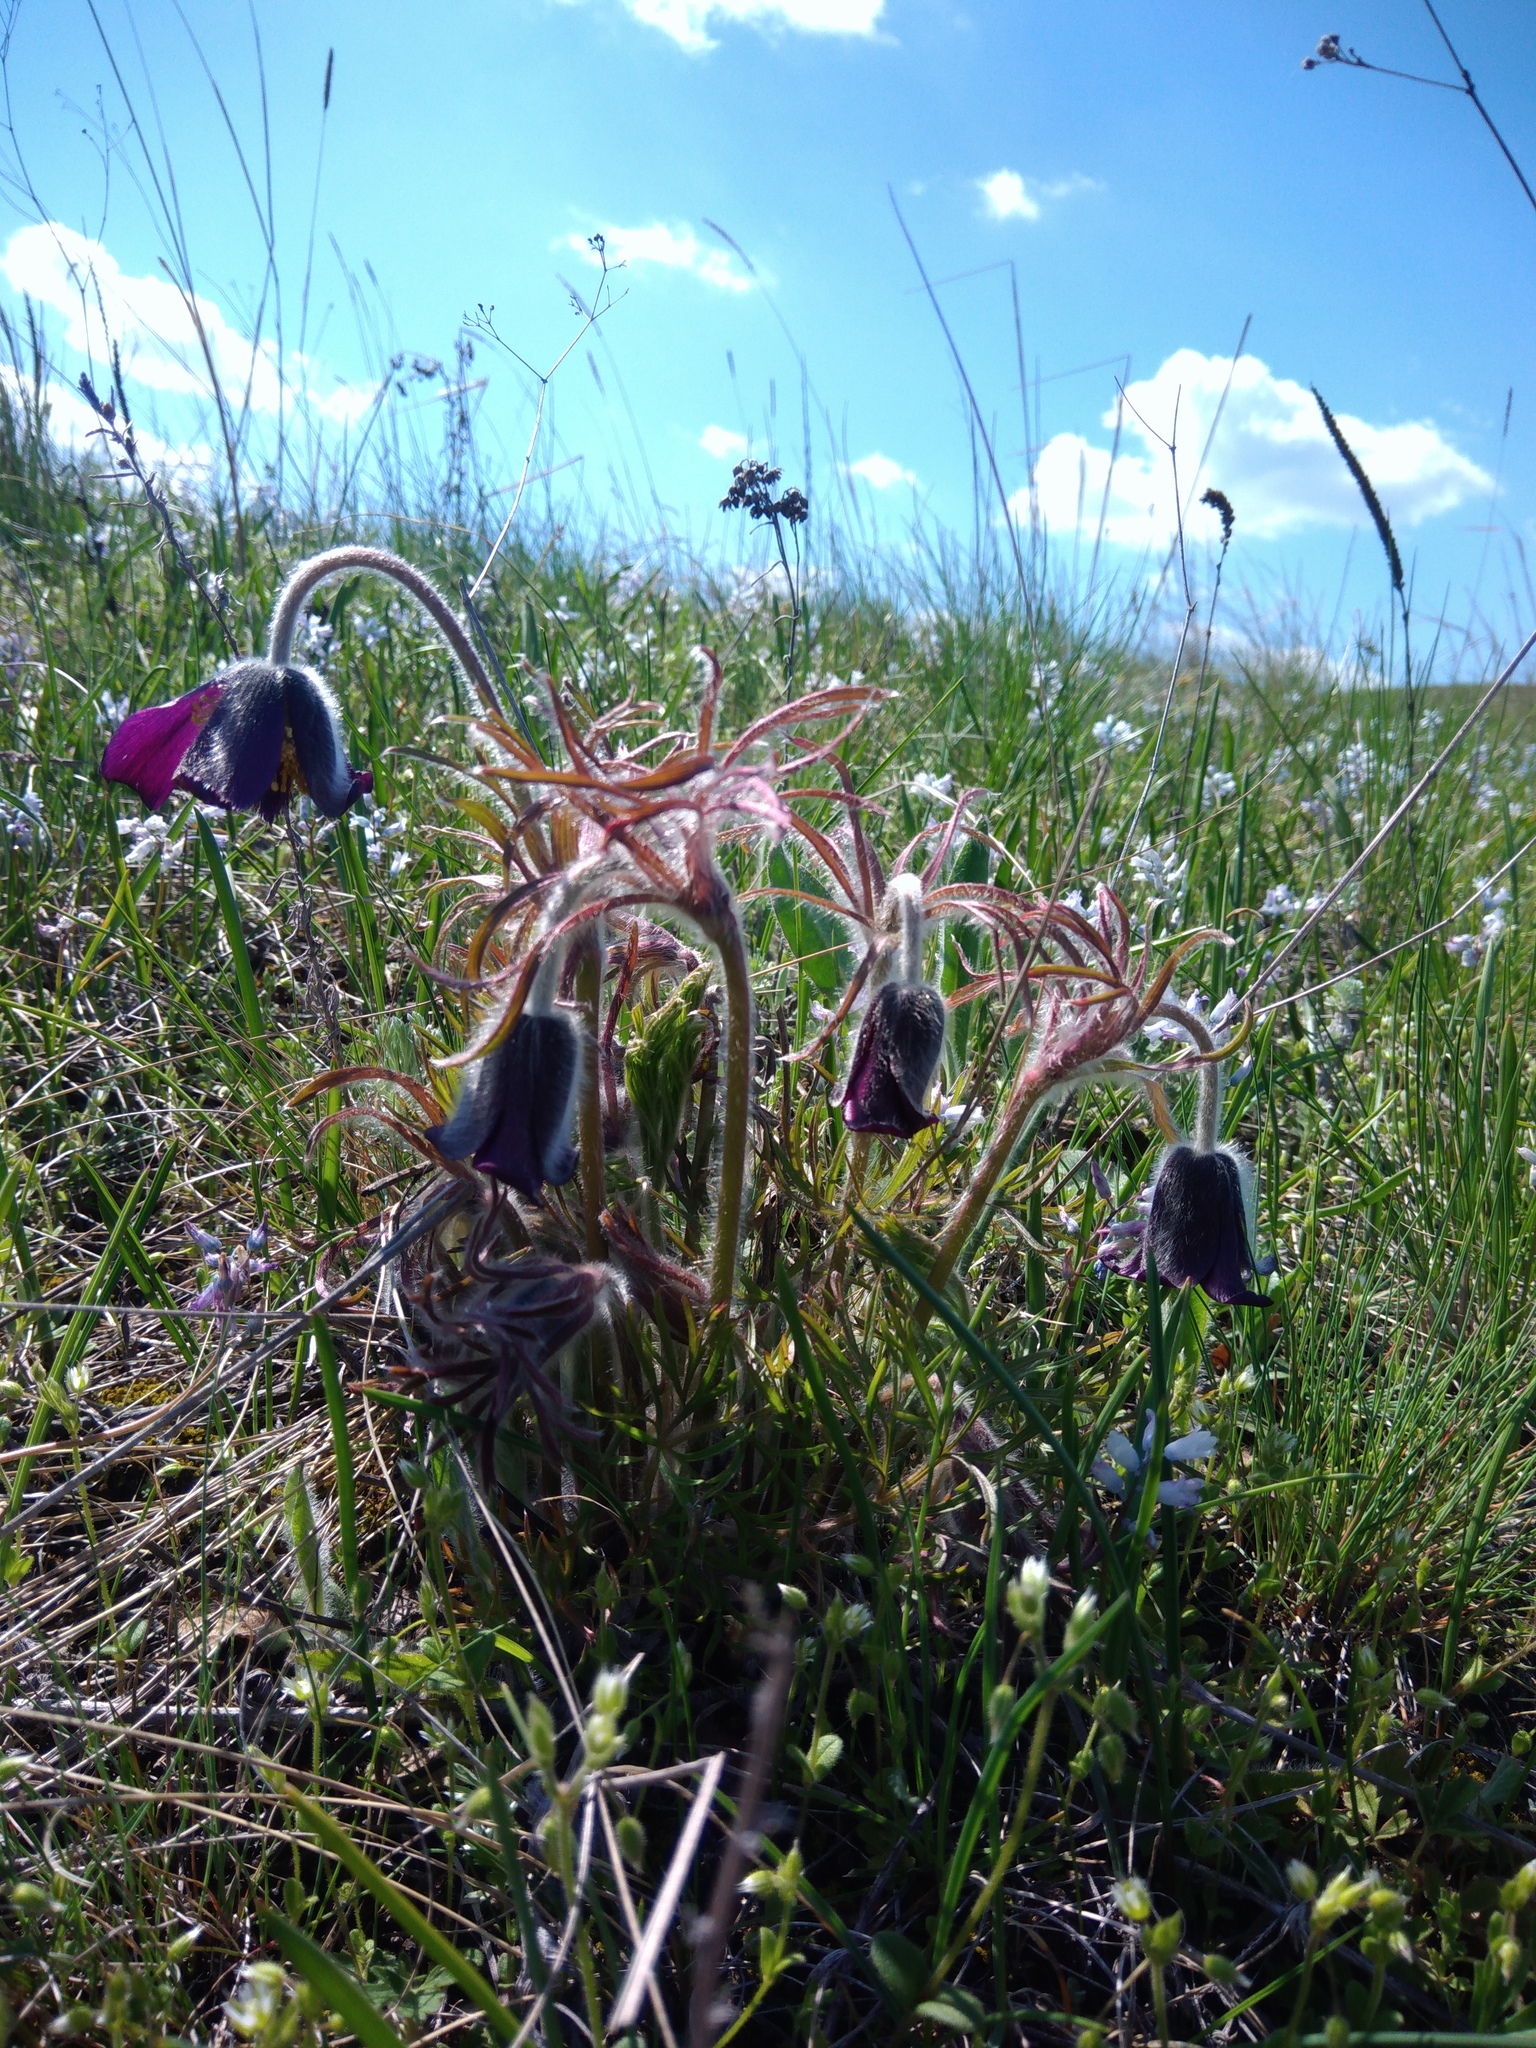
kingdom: Plantae
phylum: Tracheophyta
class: Magnoliopsida
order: Ranunculales
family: Ranunculaceae
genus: Pulsatilla
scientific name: Pulsatilla pratensis
